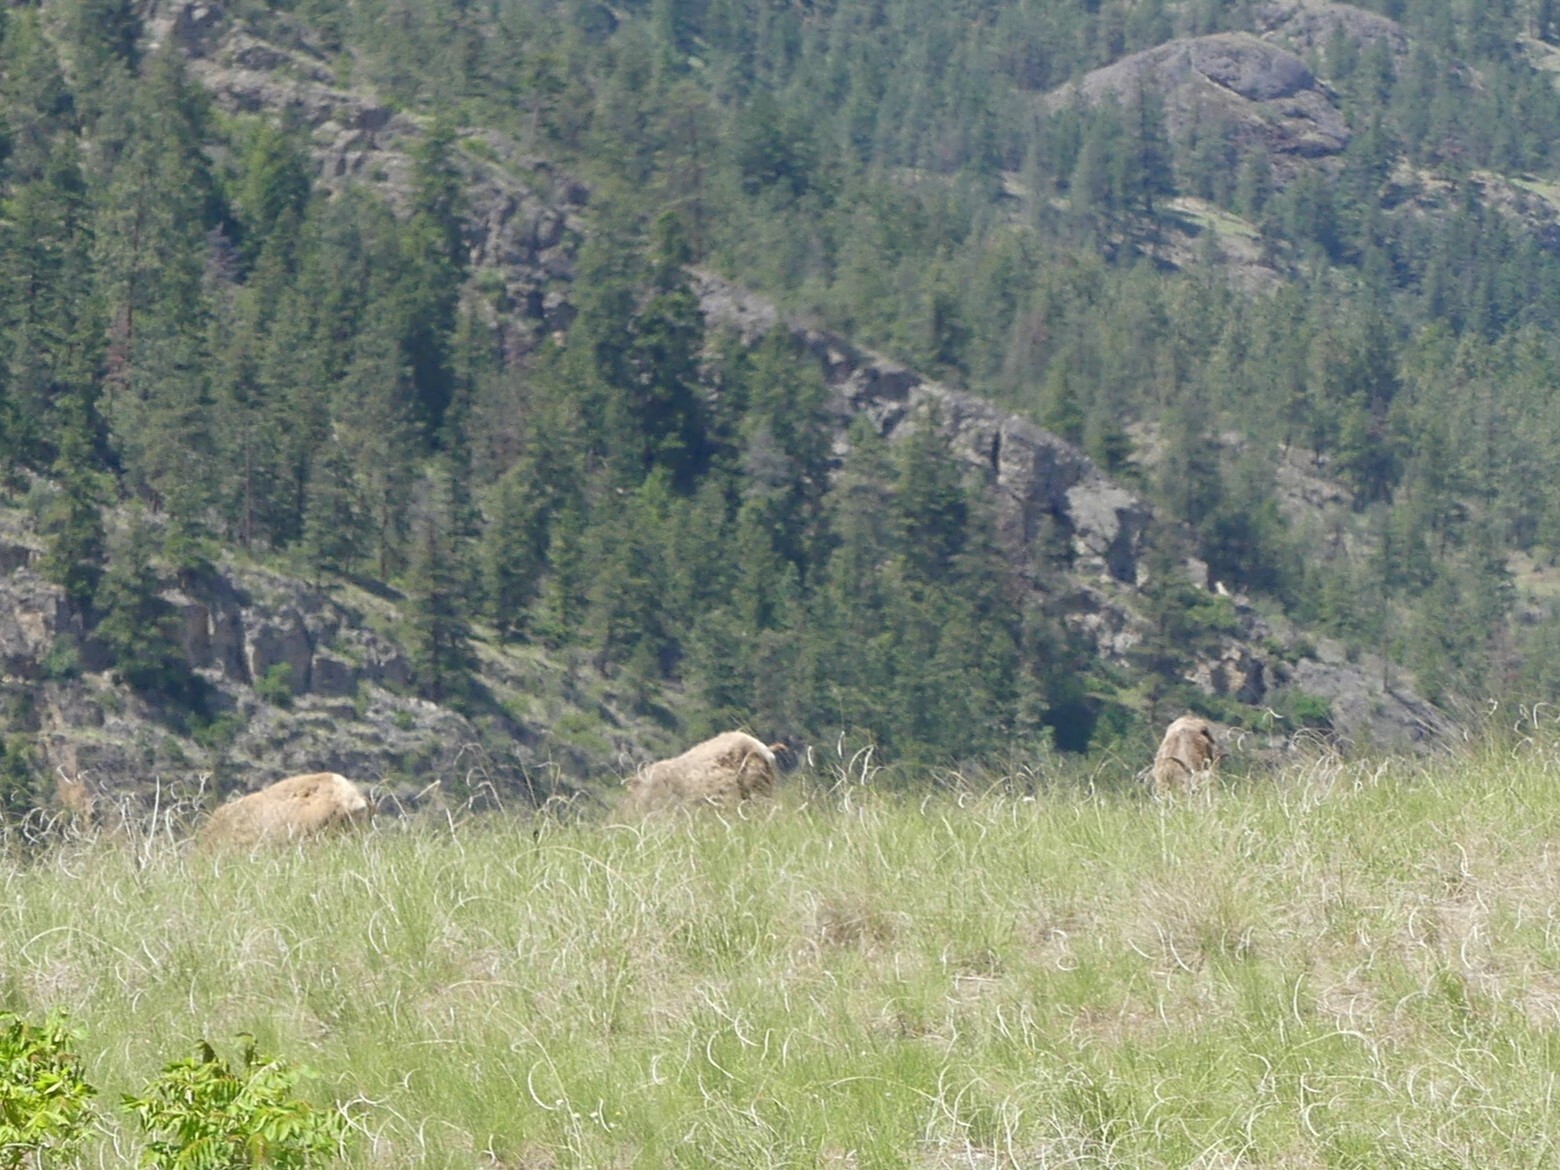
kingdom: Animalia
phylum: Chordata
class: Mammalia
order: Artiodactyla
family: Bovidae
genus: Ovis
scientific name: Ovis canadensis
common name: Bighorn sheep
